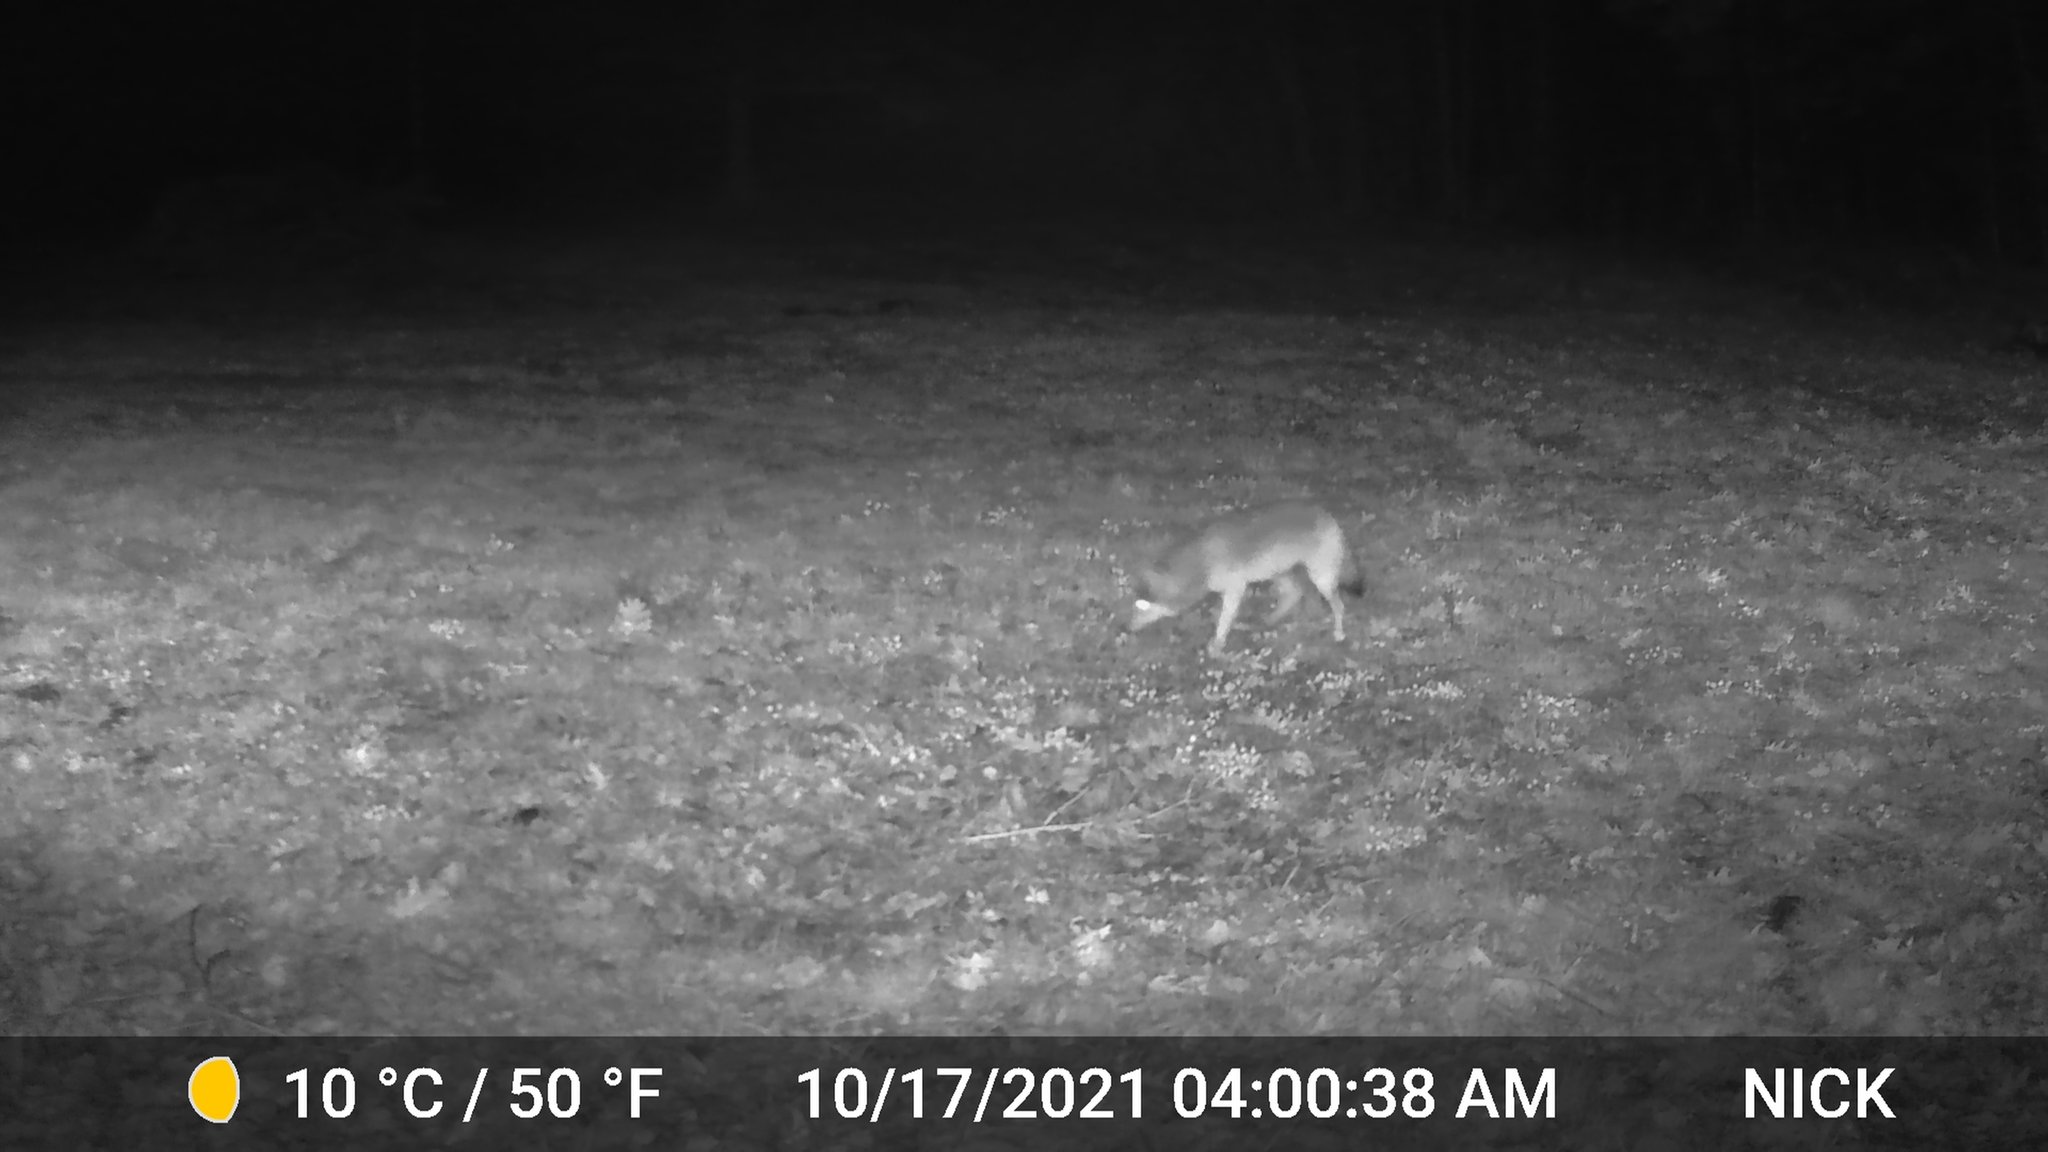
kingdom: Animalia
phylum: Chordata
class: Mammalia
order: Carnivora
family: Canidae
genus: Canis
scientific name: Canis latrans
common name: Coyote
